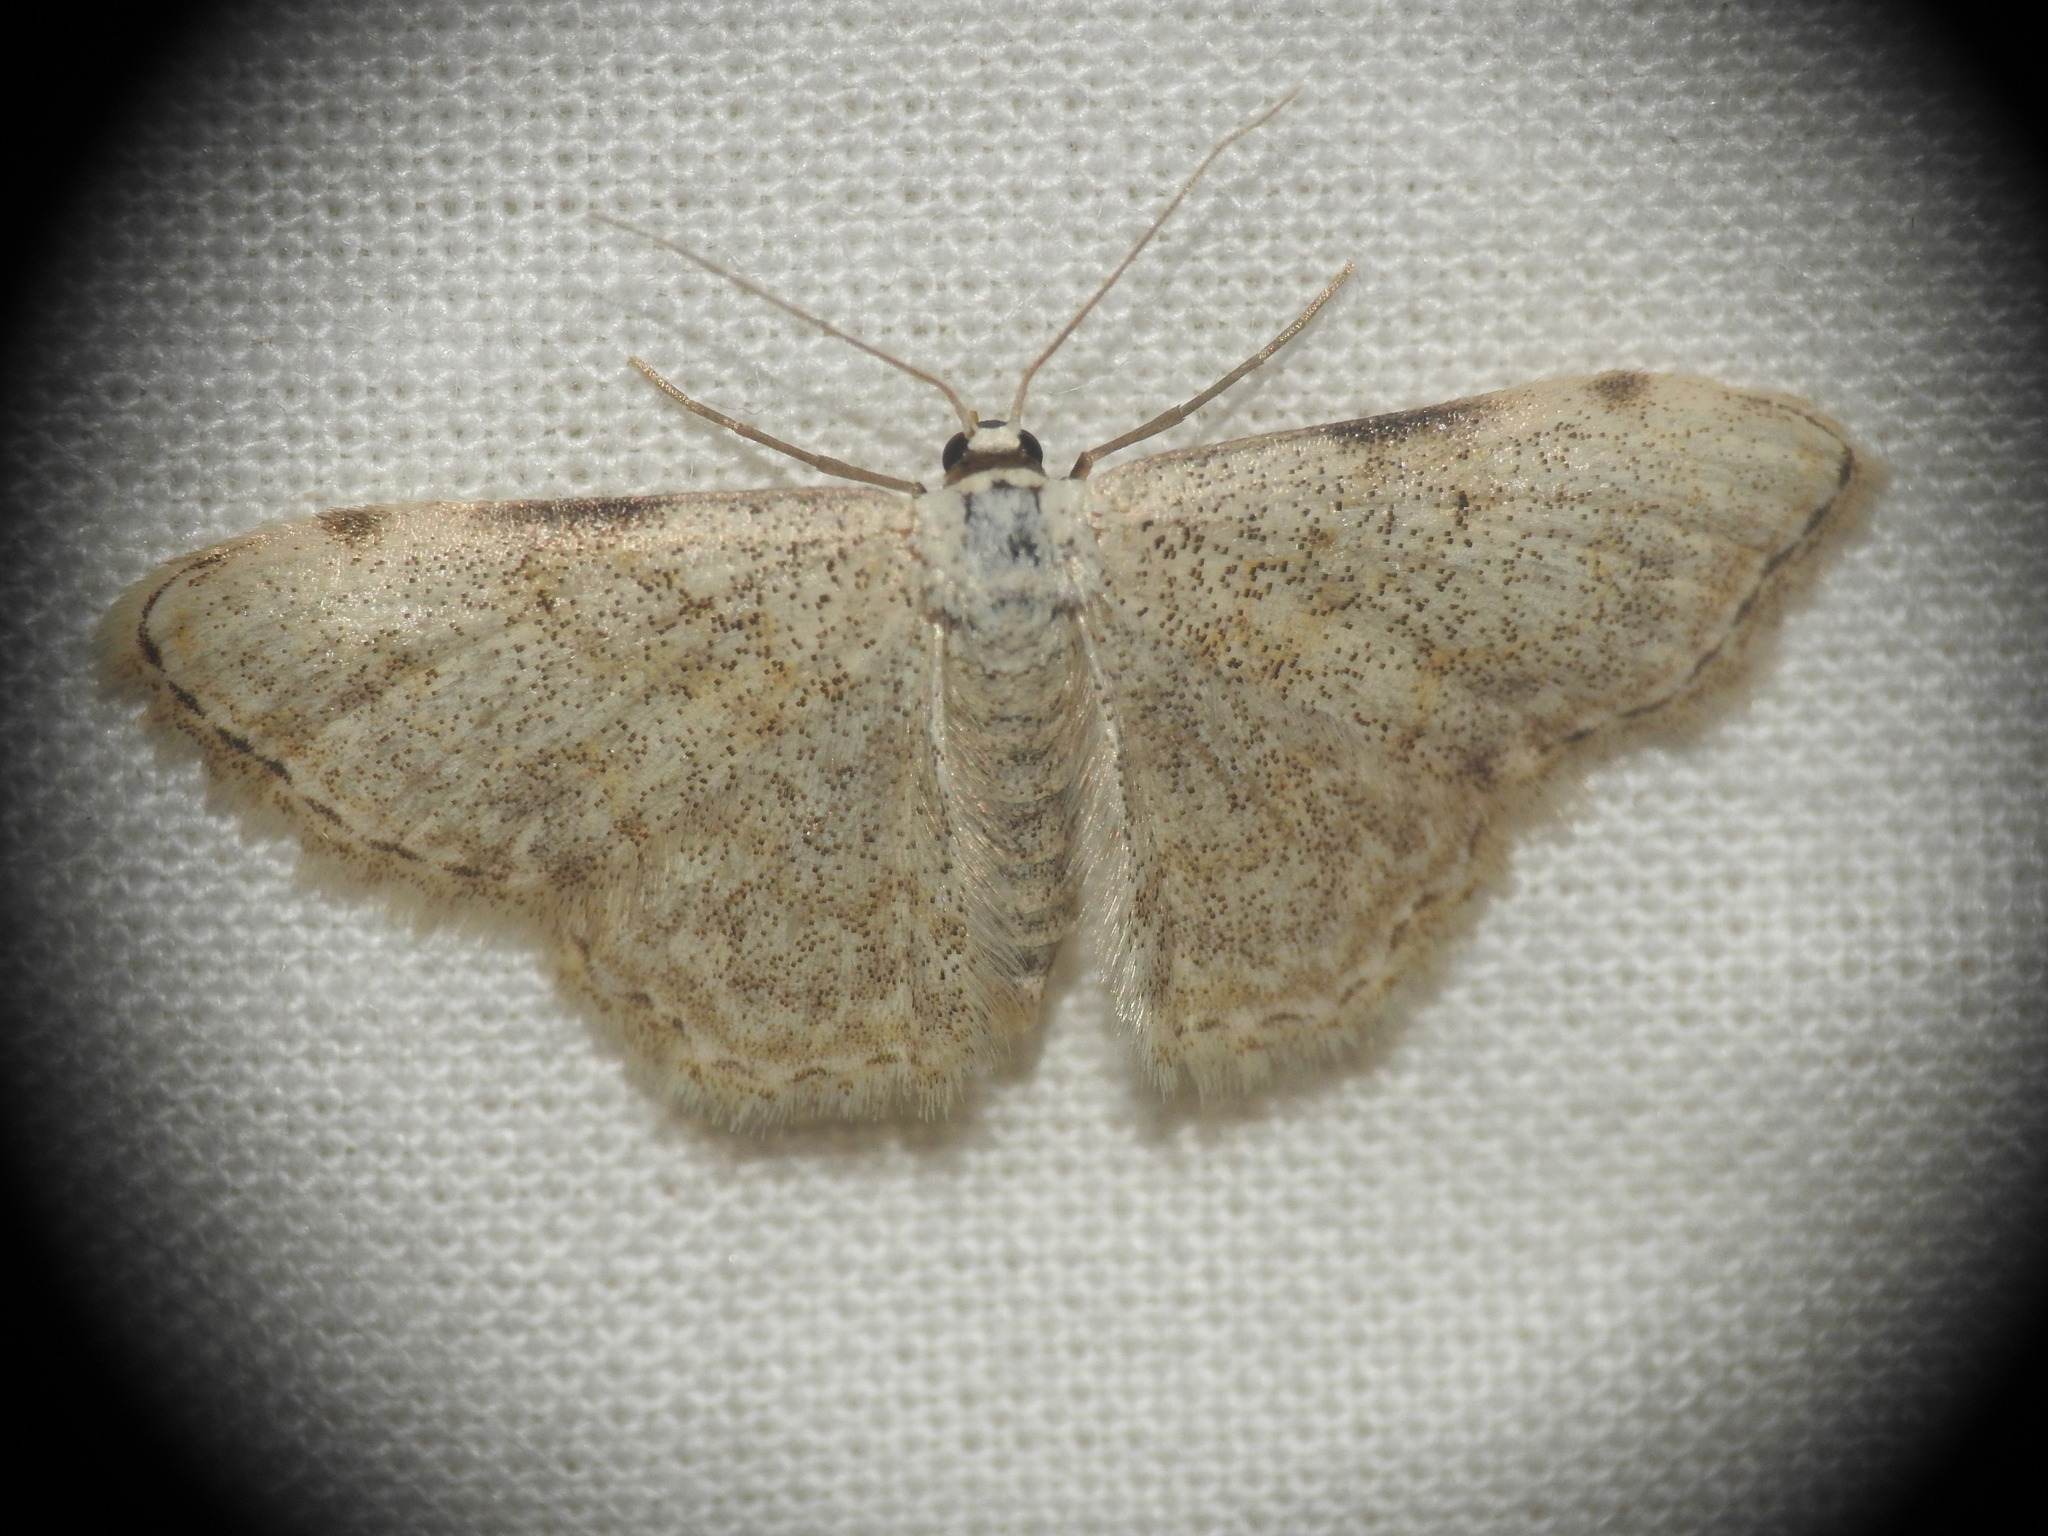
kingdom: Animalia
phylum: Arthropoda
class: Insecta
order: Lepidoptera
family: Geometridae
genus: Scopula
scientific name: Scopula submutata
